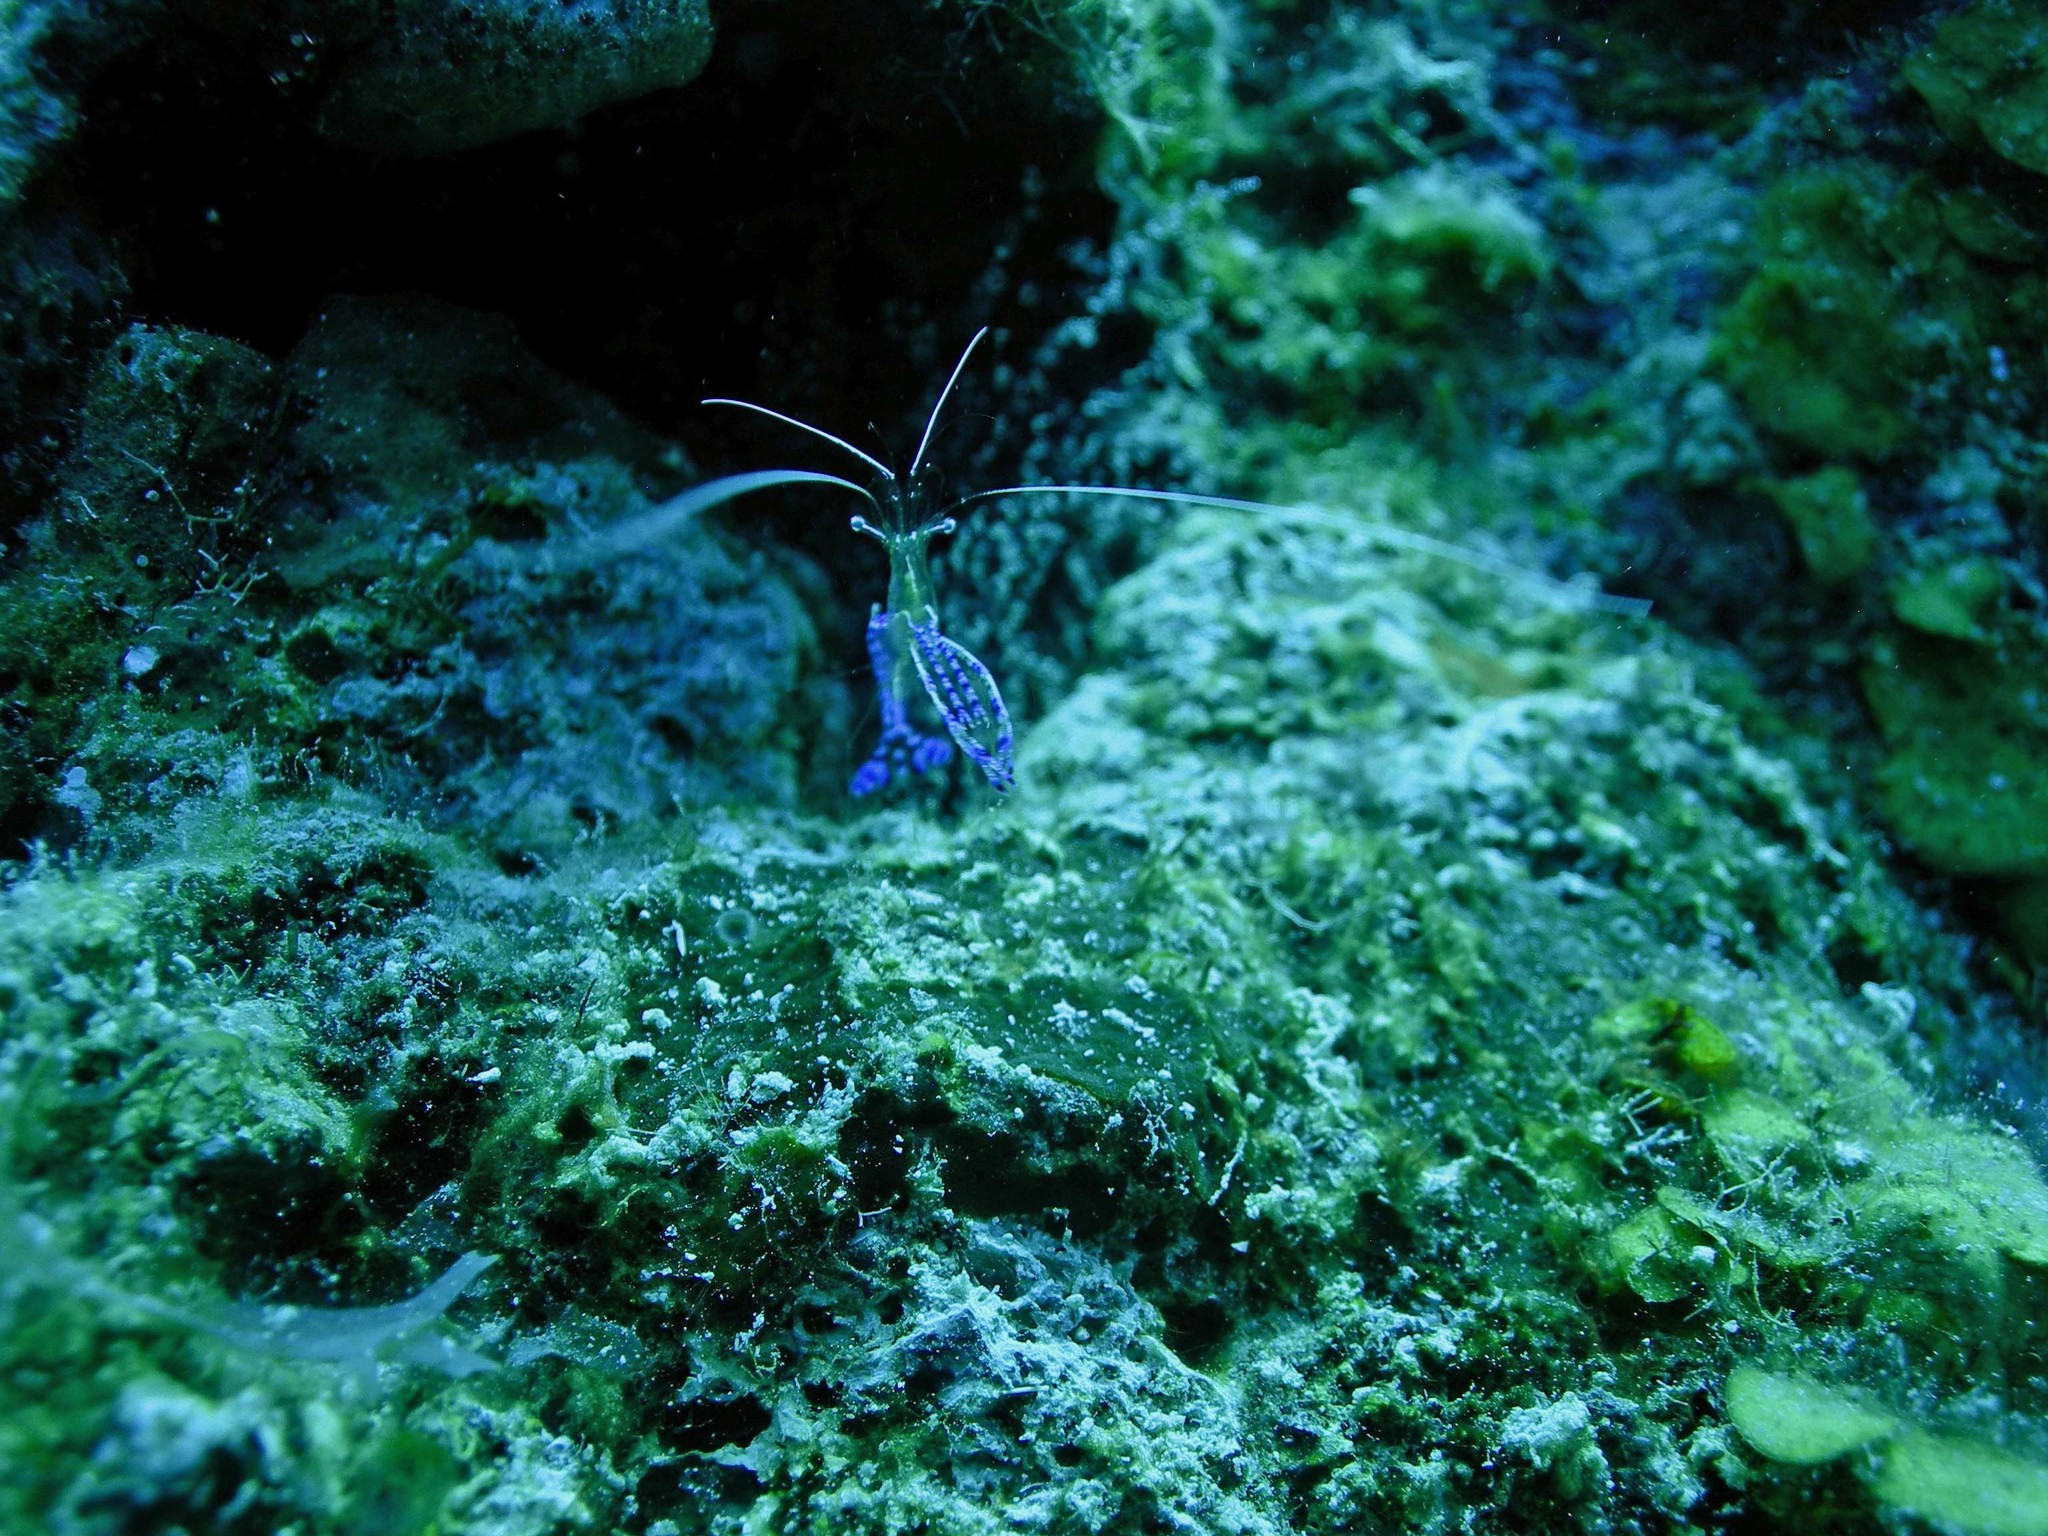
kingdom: Animalia
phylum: Arthropoda
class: Malacostraca
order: Decapoda
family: Palaemonidae
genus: Ancylomenes
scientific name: Ancylomenes pedersoni
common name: Pederson's cleaning shrimp
